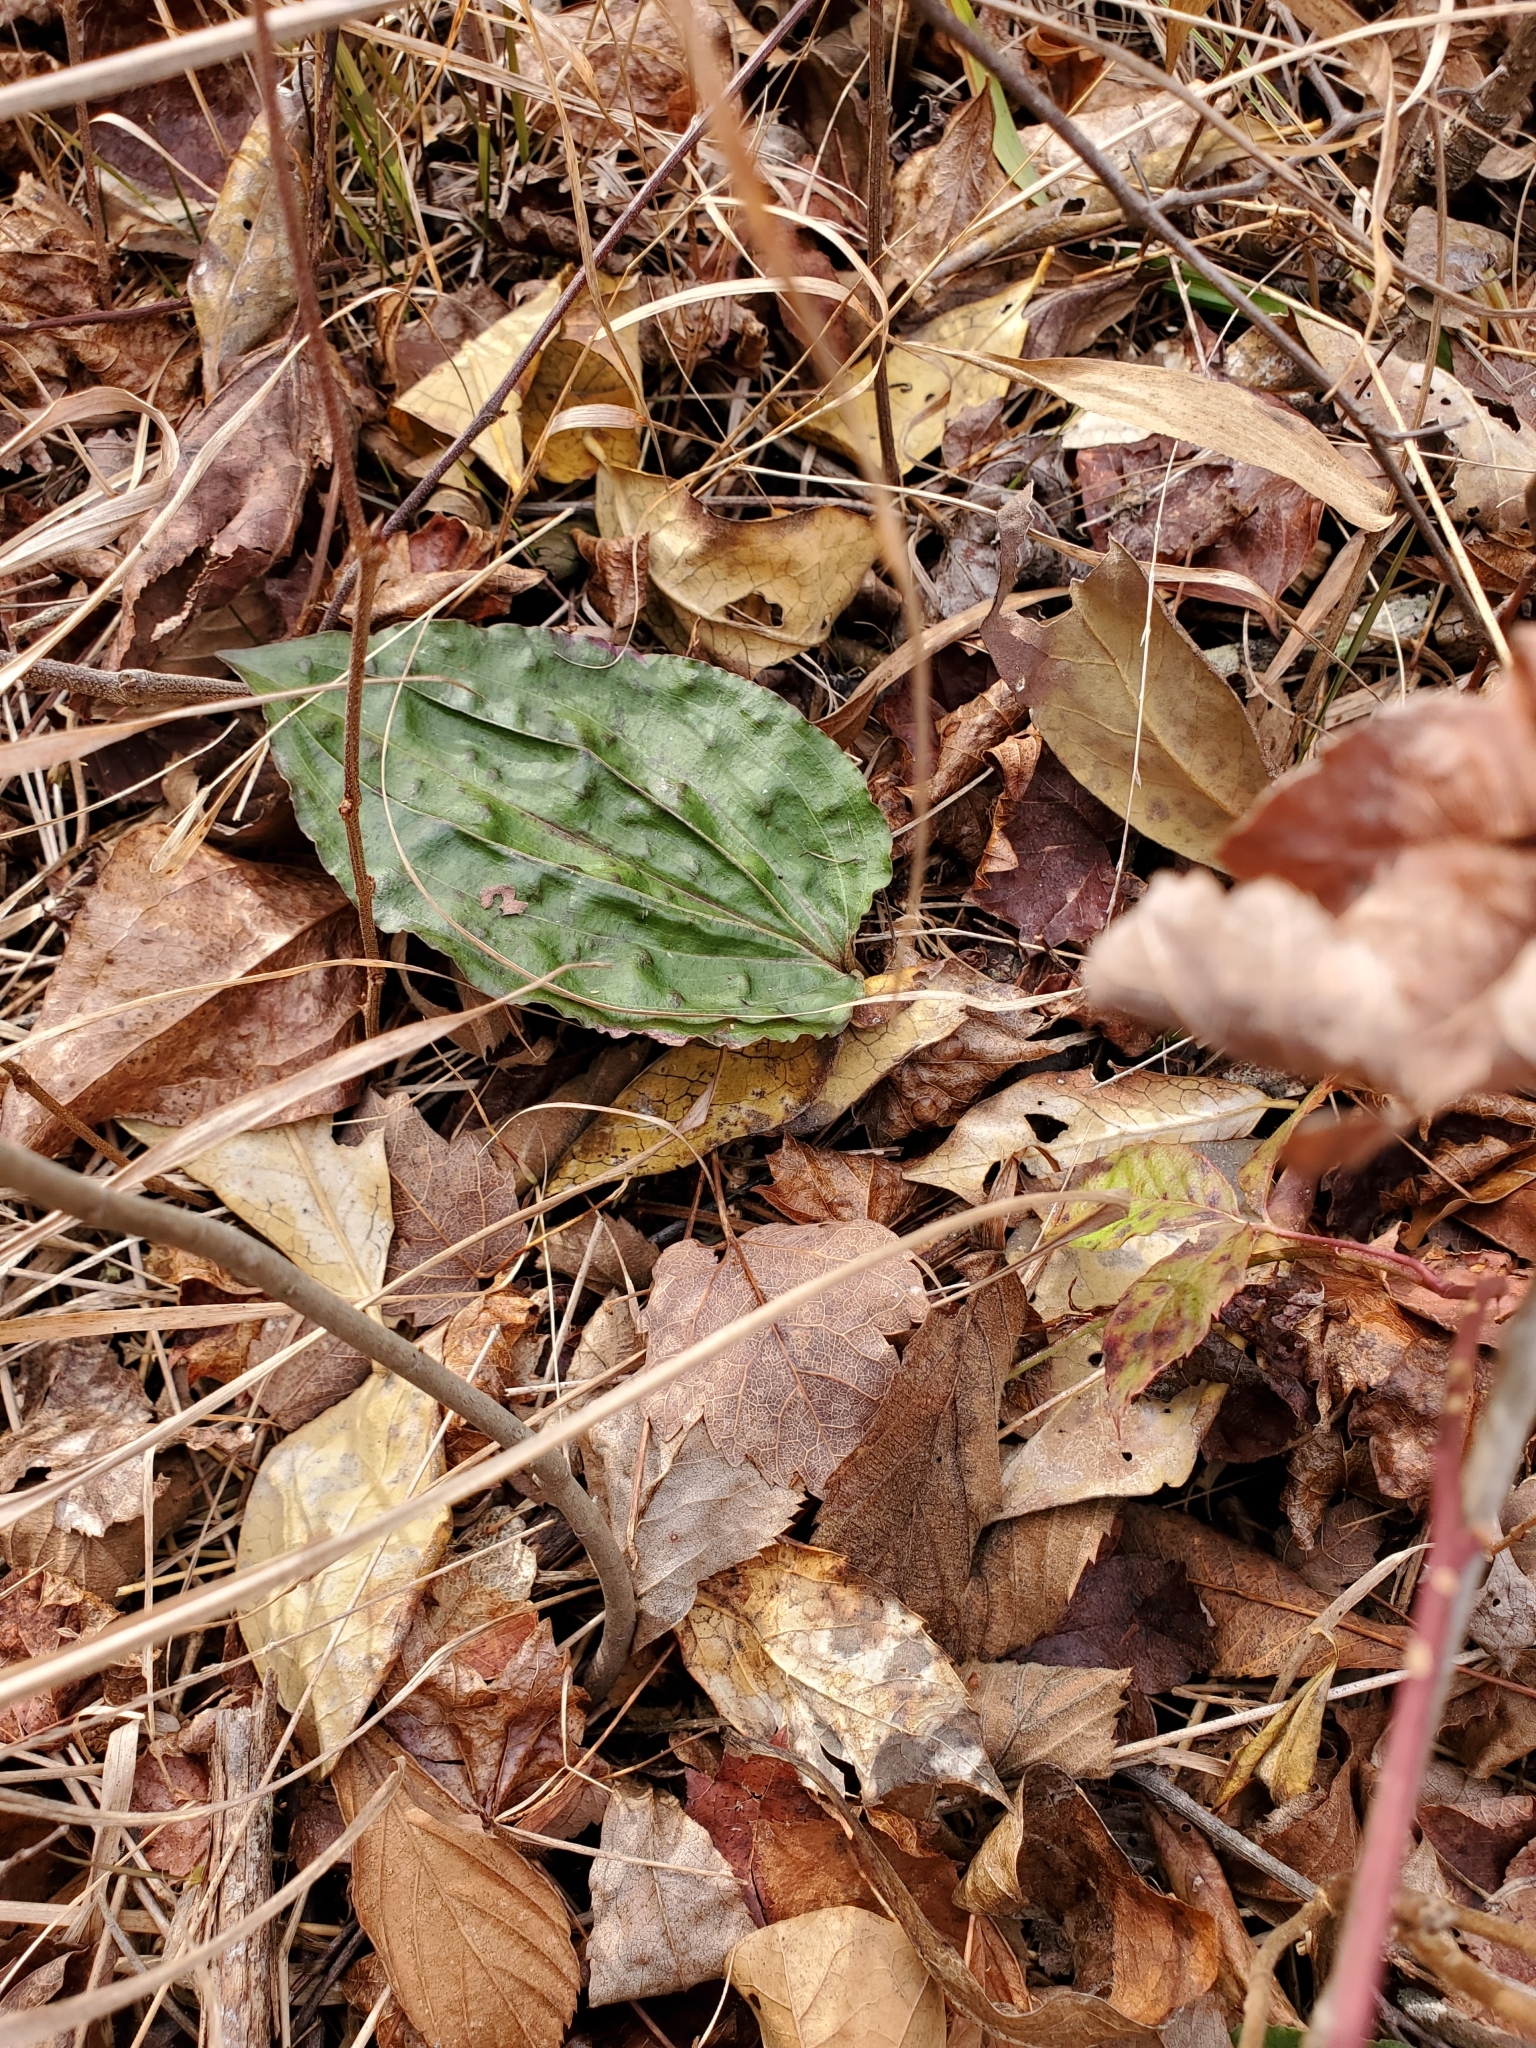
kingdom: Plantae
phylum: Tracheophyta
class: Liliopsida
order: Asparagales
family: Orchidaceae
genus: Tipularia
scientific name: Tipularia discolor
